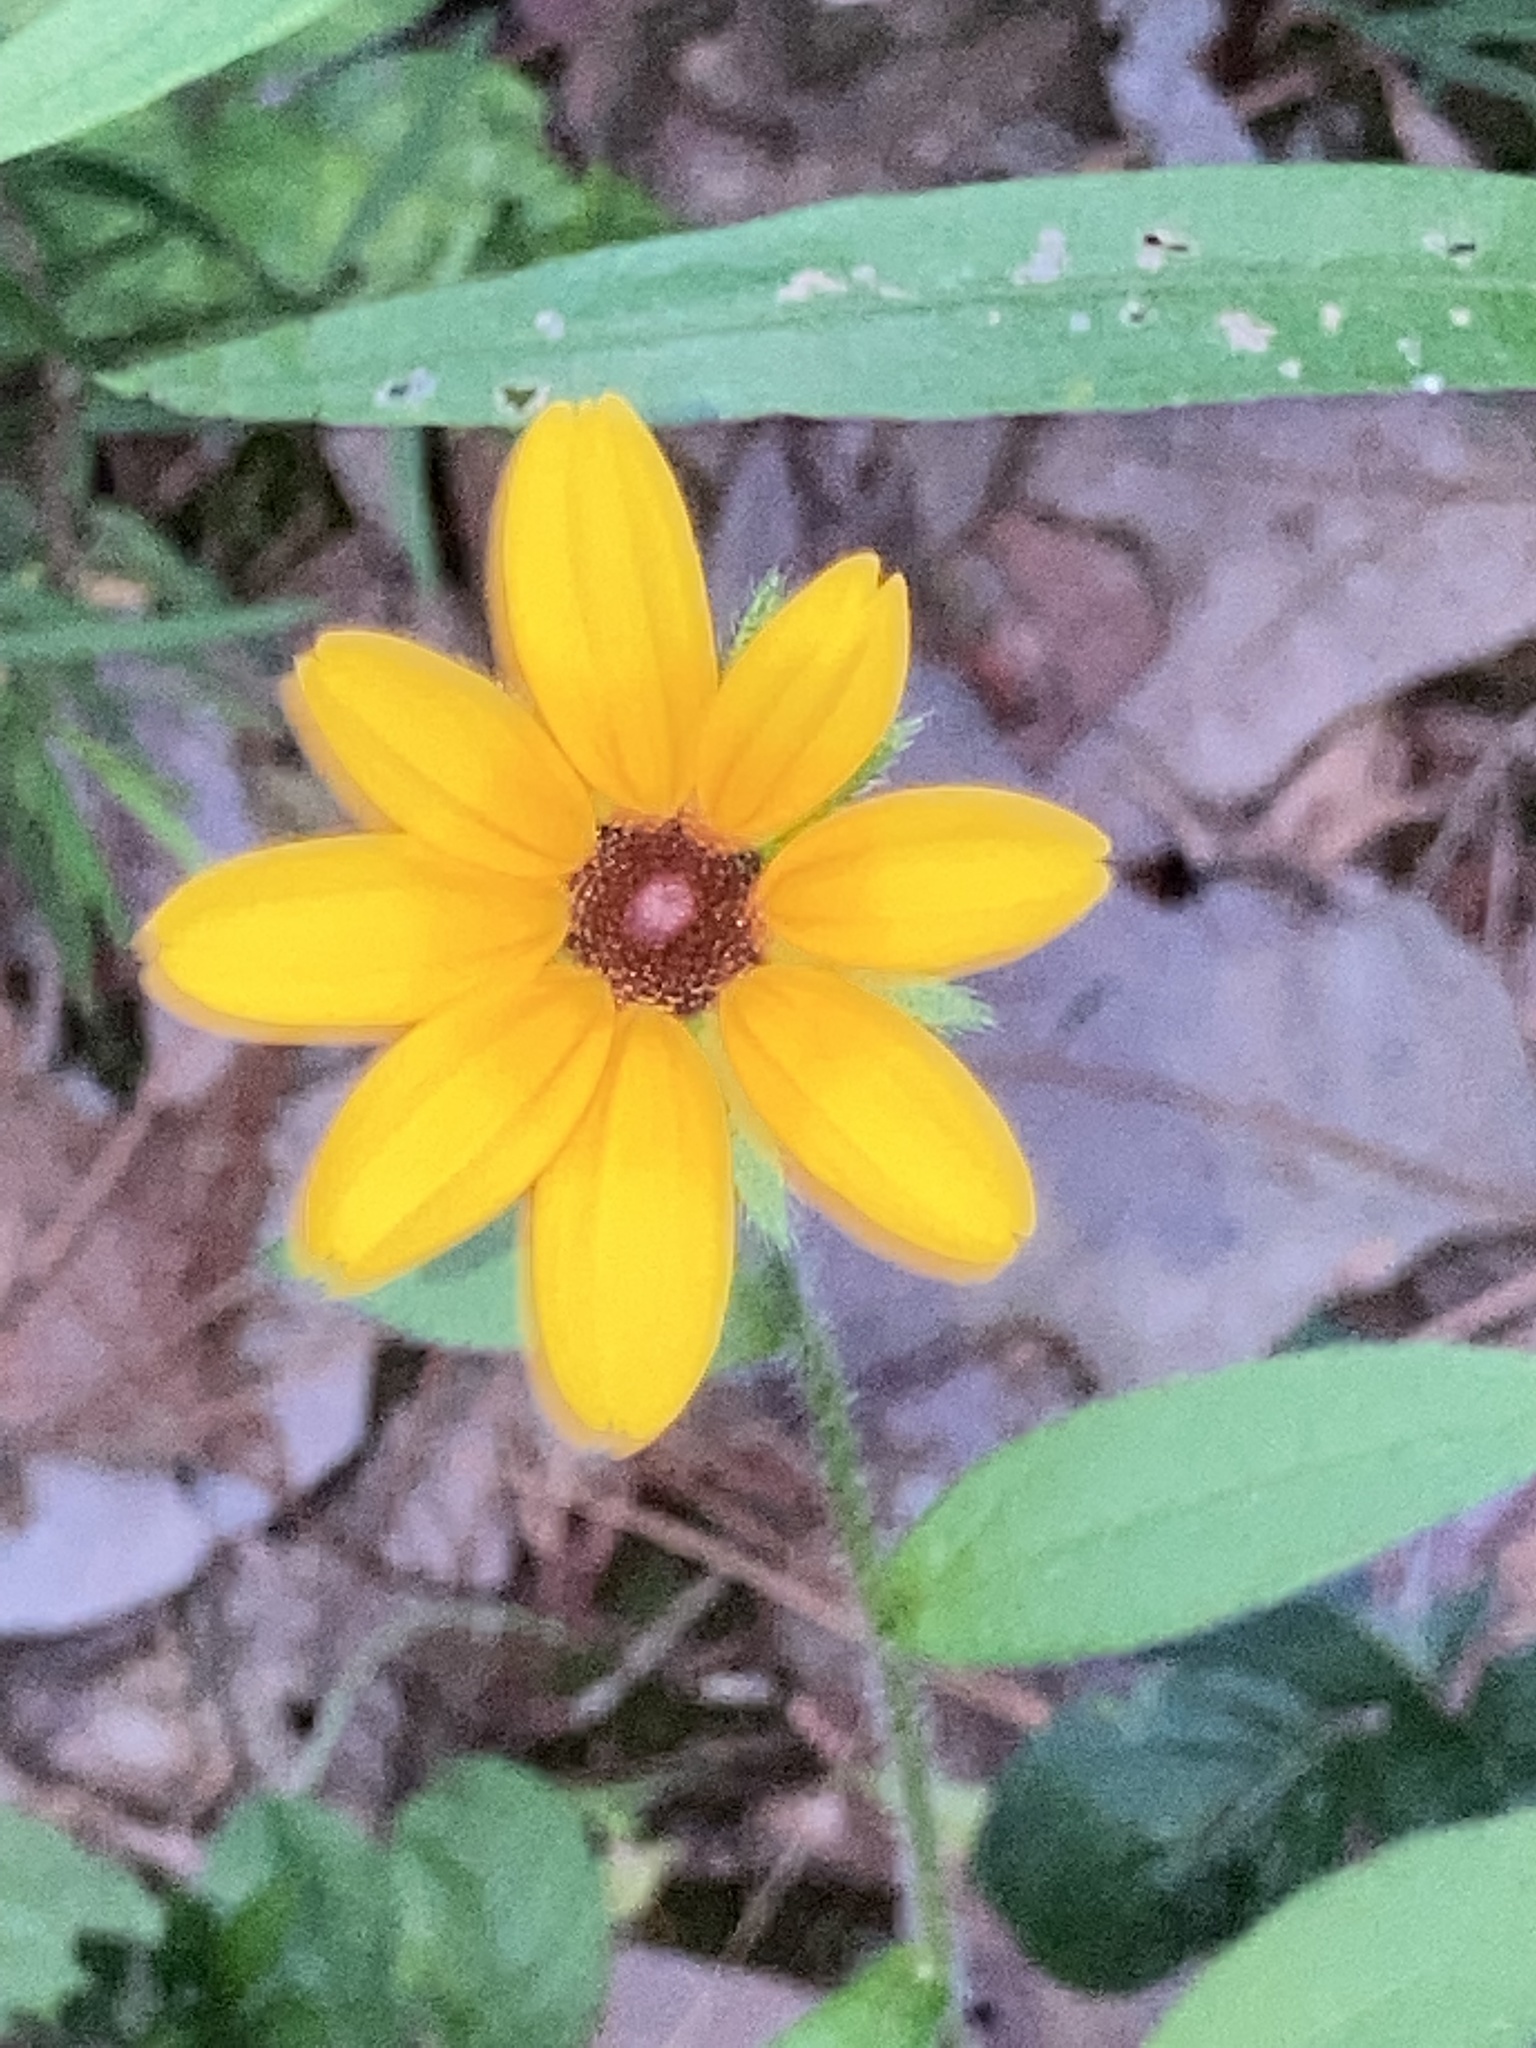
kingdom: Plantae
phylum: Tracheophyta
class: Magnoliopsida
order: Asterales
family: Asteraceae
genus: Rudbeckia
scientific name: Rudbeckia hirta
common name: Black-eyed-susan
